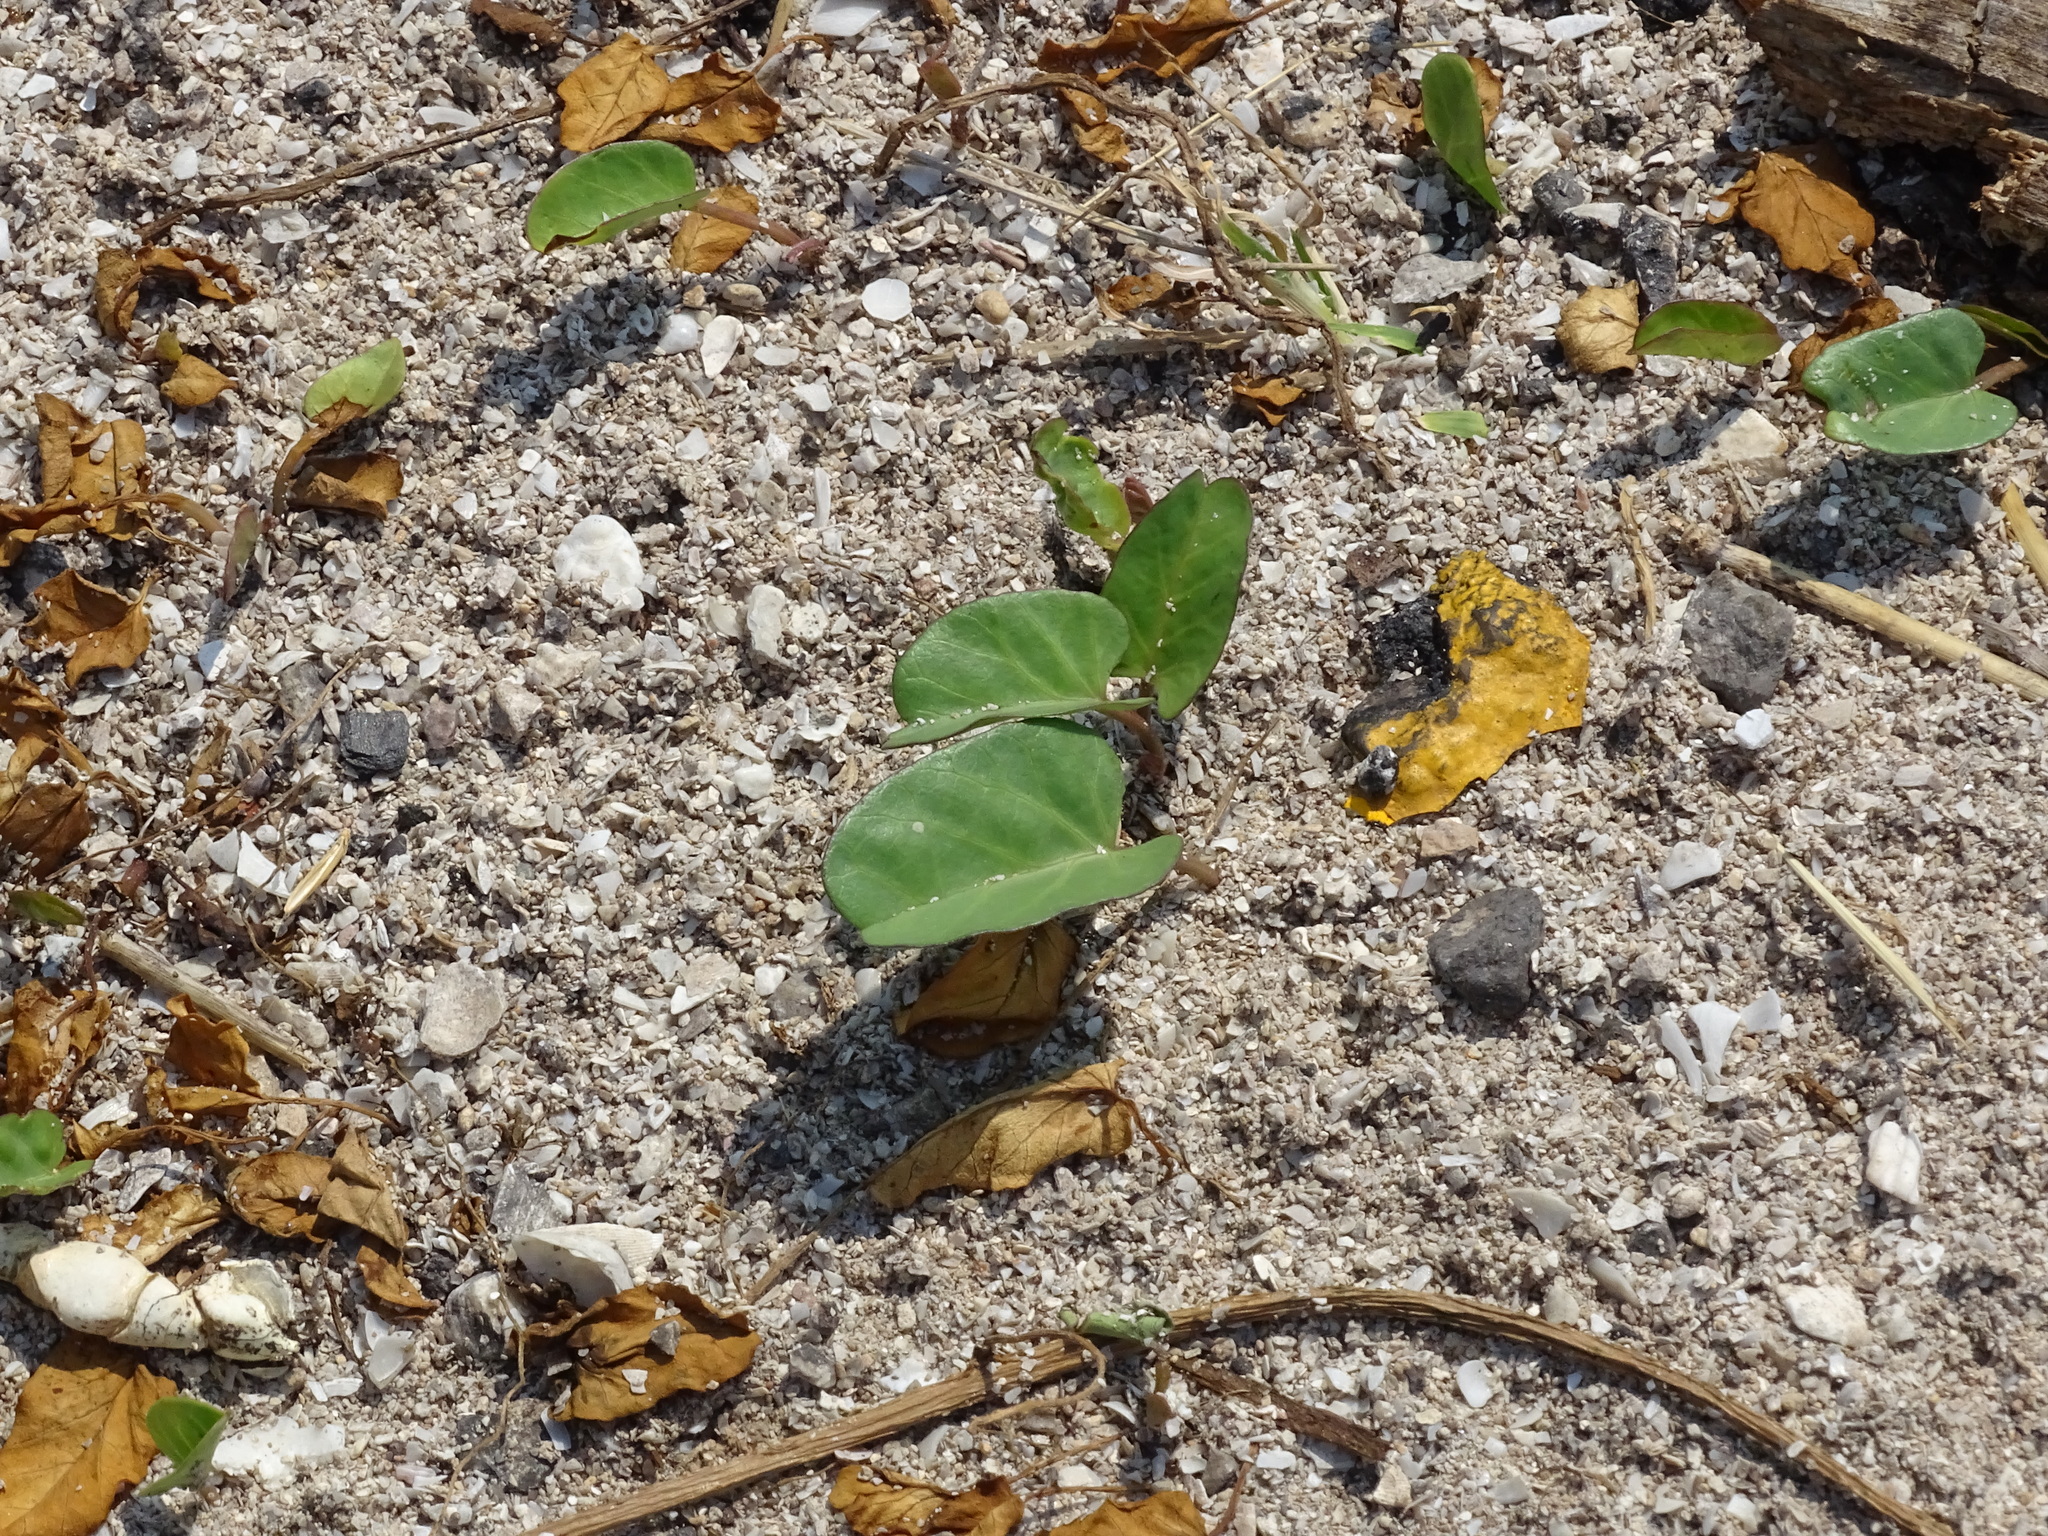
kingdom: Plantae
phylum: Tracheophyta
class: Magnoliopsida
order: Solanales
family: Convolvulaceae
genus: Ipomoea
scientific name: Ipomoea imperati
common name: Fiddle-leaf morning-glory
